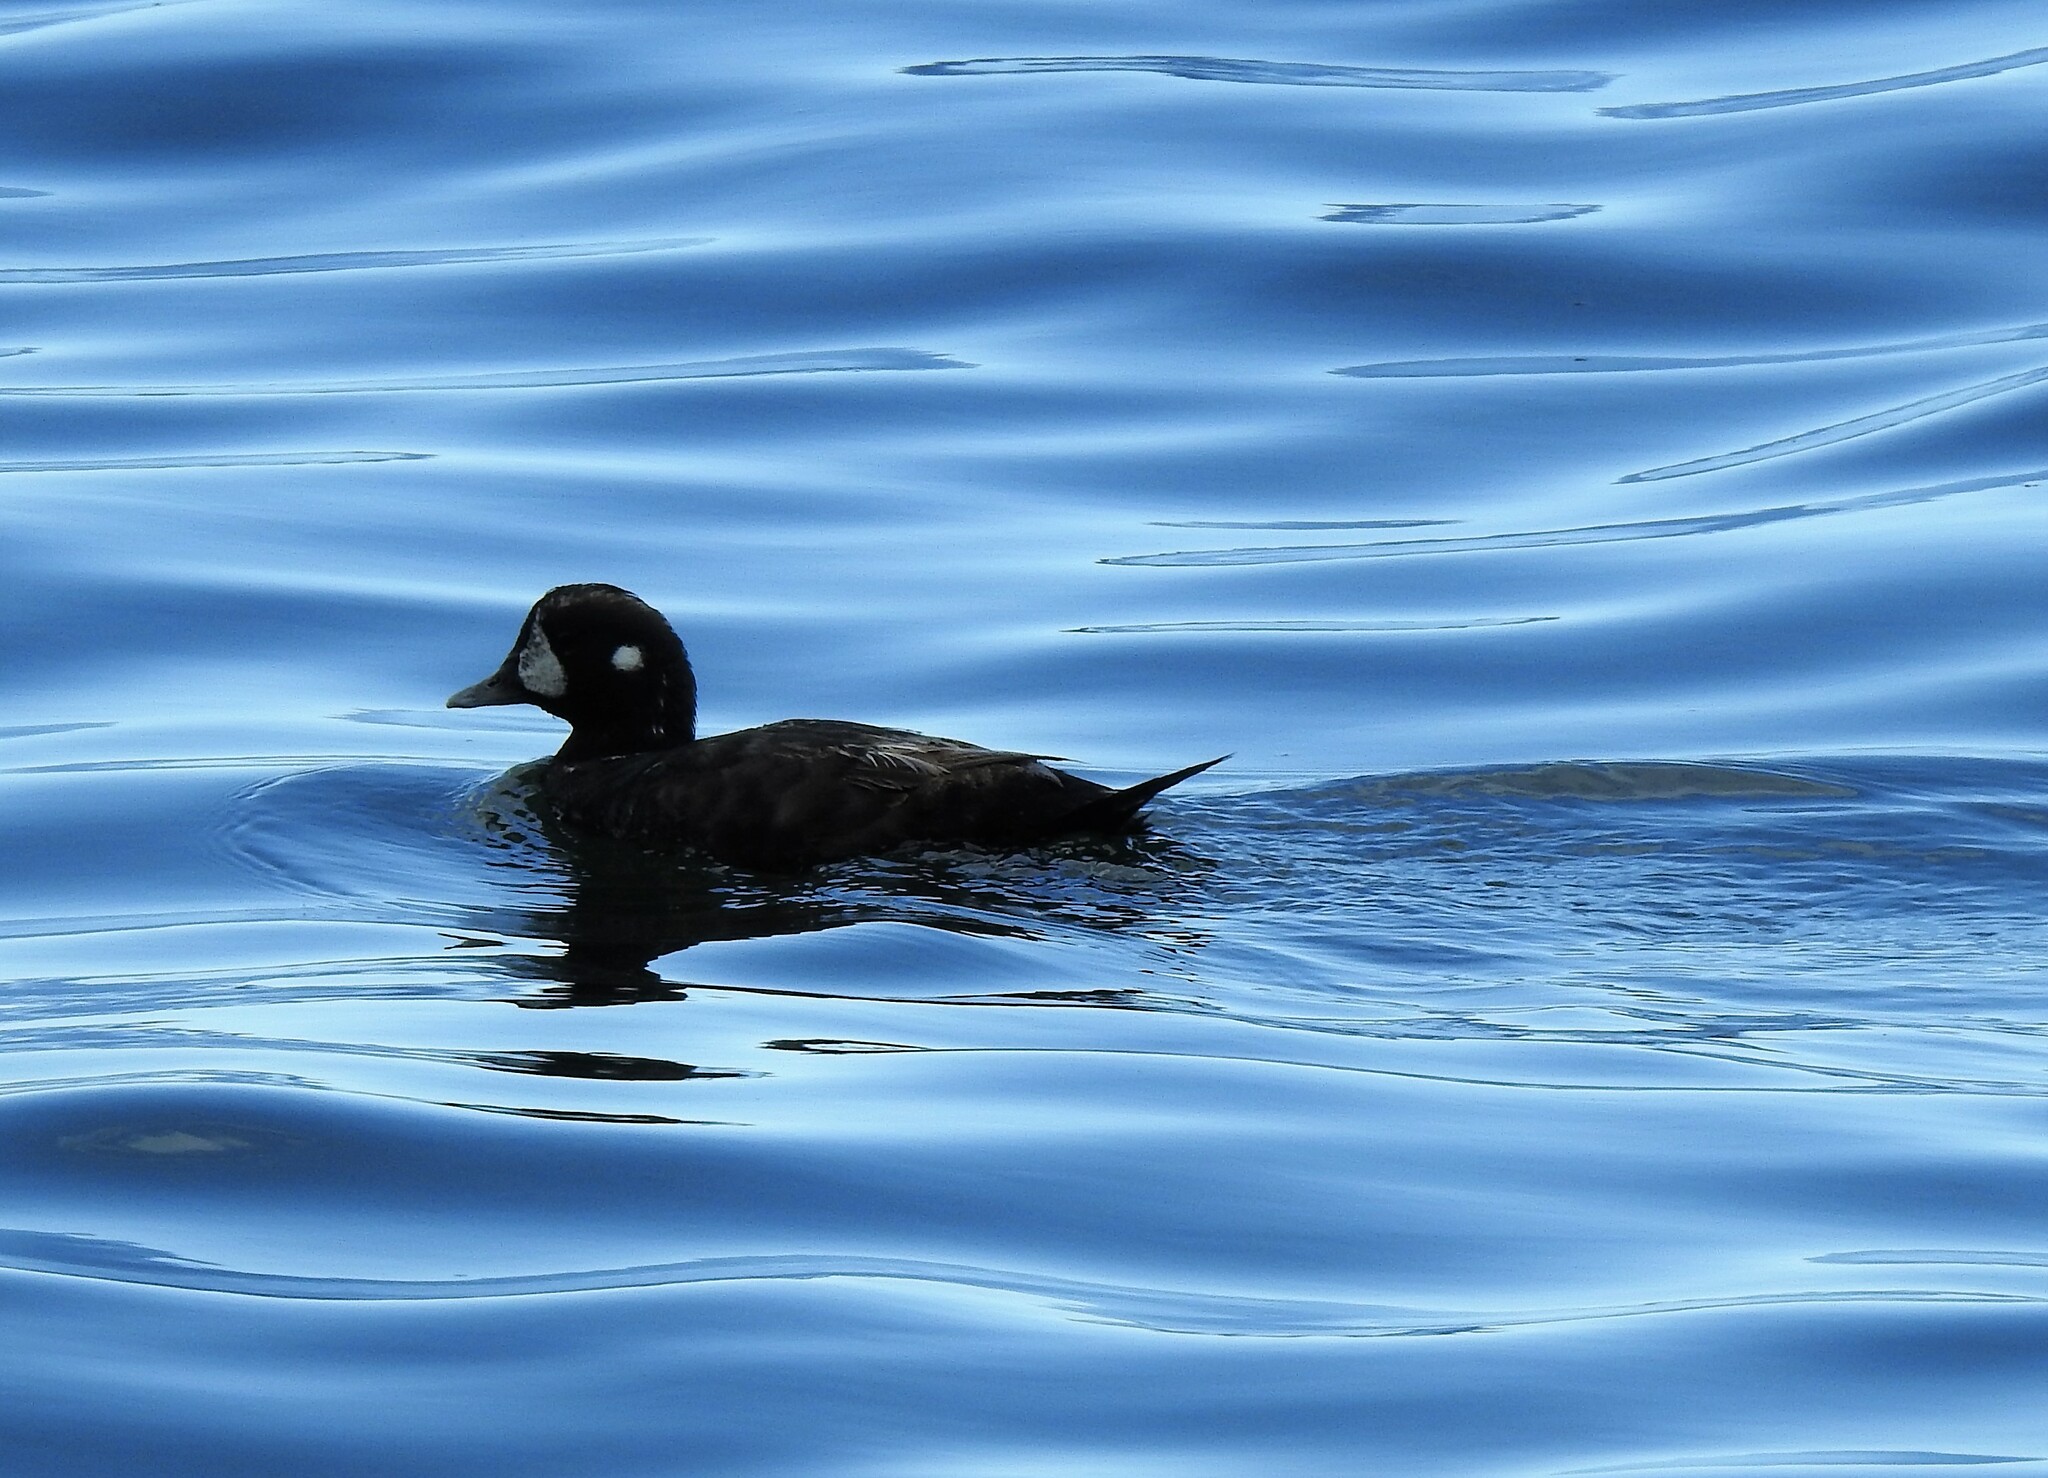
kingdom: Animalia
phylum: Chordata
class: Aves
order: Anseriformes
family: Anatidae
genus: Histrionicus
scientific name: Histrionicus histrionicus
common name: Harlequin duck
